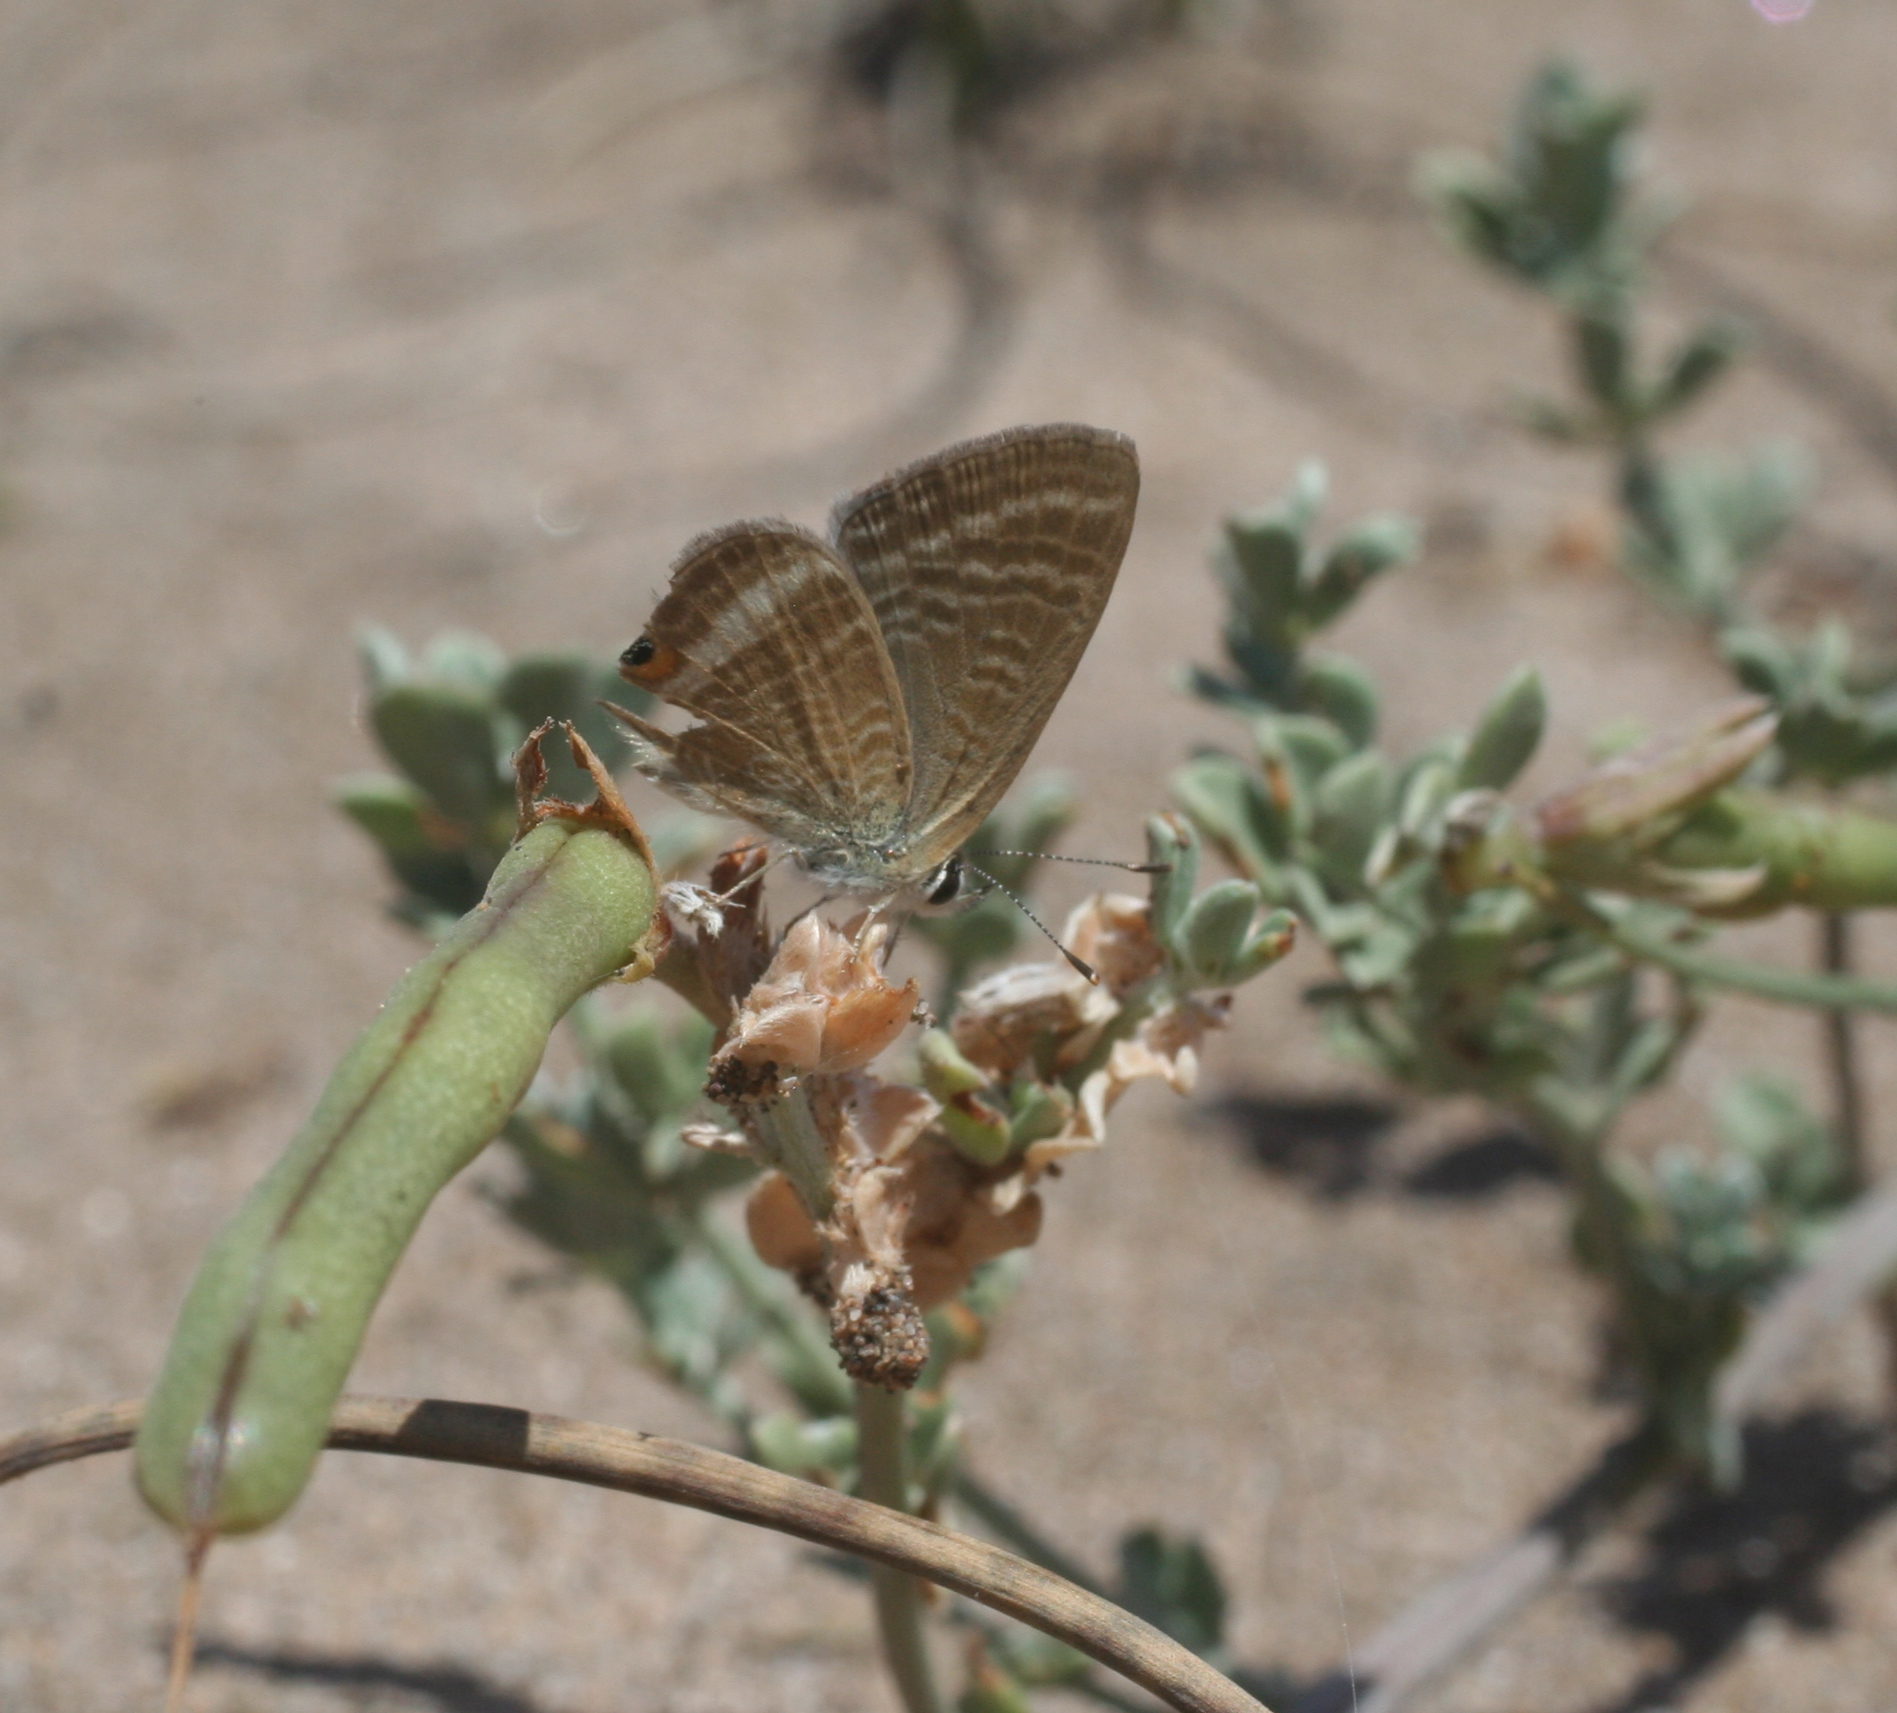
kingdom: Plantae
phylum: Tracheophyta
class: Magnoliopsida
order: Fabales
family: Fabaceae
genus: Lotus
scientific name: Lotus creticus
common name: Cretan bird's-foot trefoil
